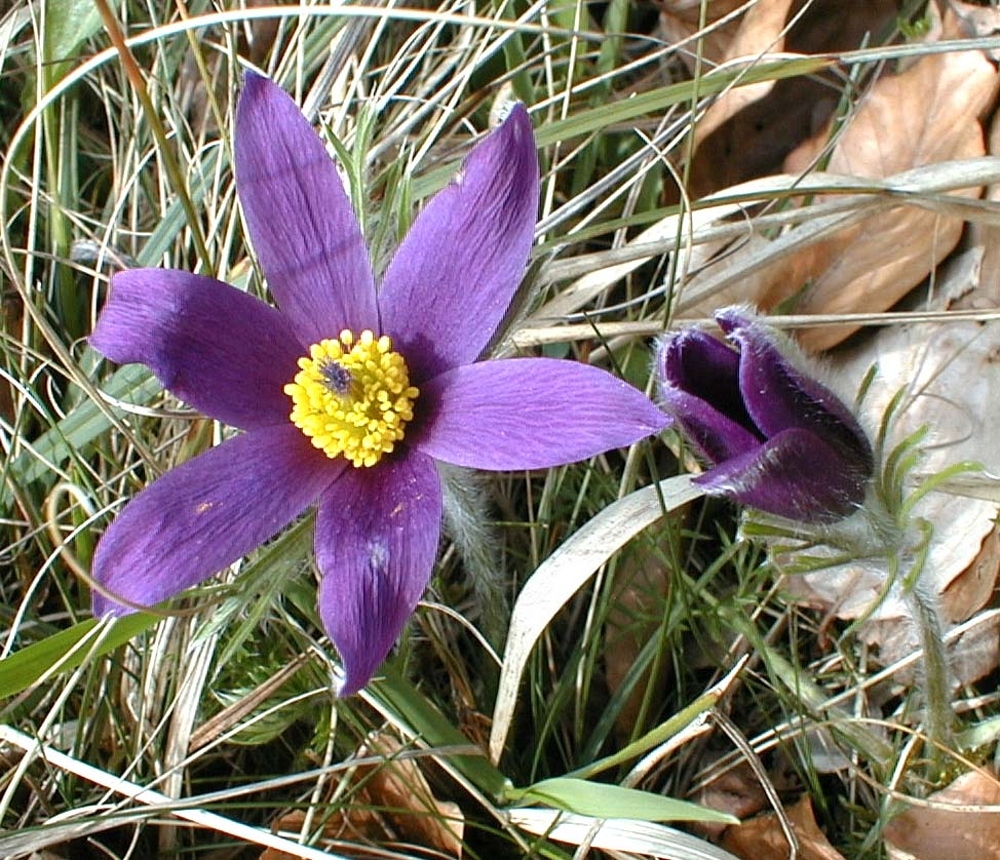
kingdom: Plantae
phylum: Tracheophyta
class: Magnoliopsida
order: Ranunculales
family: Ranunculaceae
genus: Pulsatilla
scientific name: Pulsatilla vulgaris
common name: Pasqueflower
